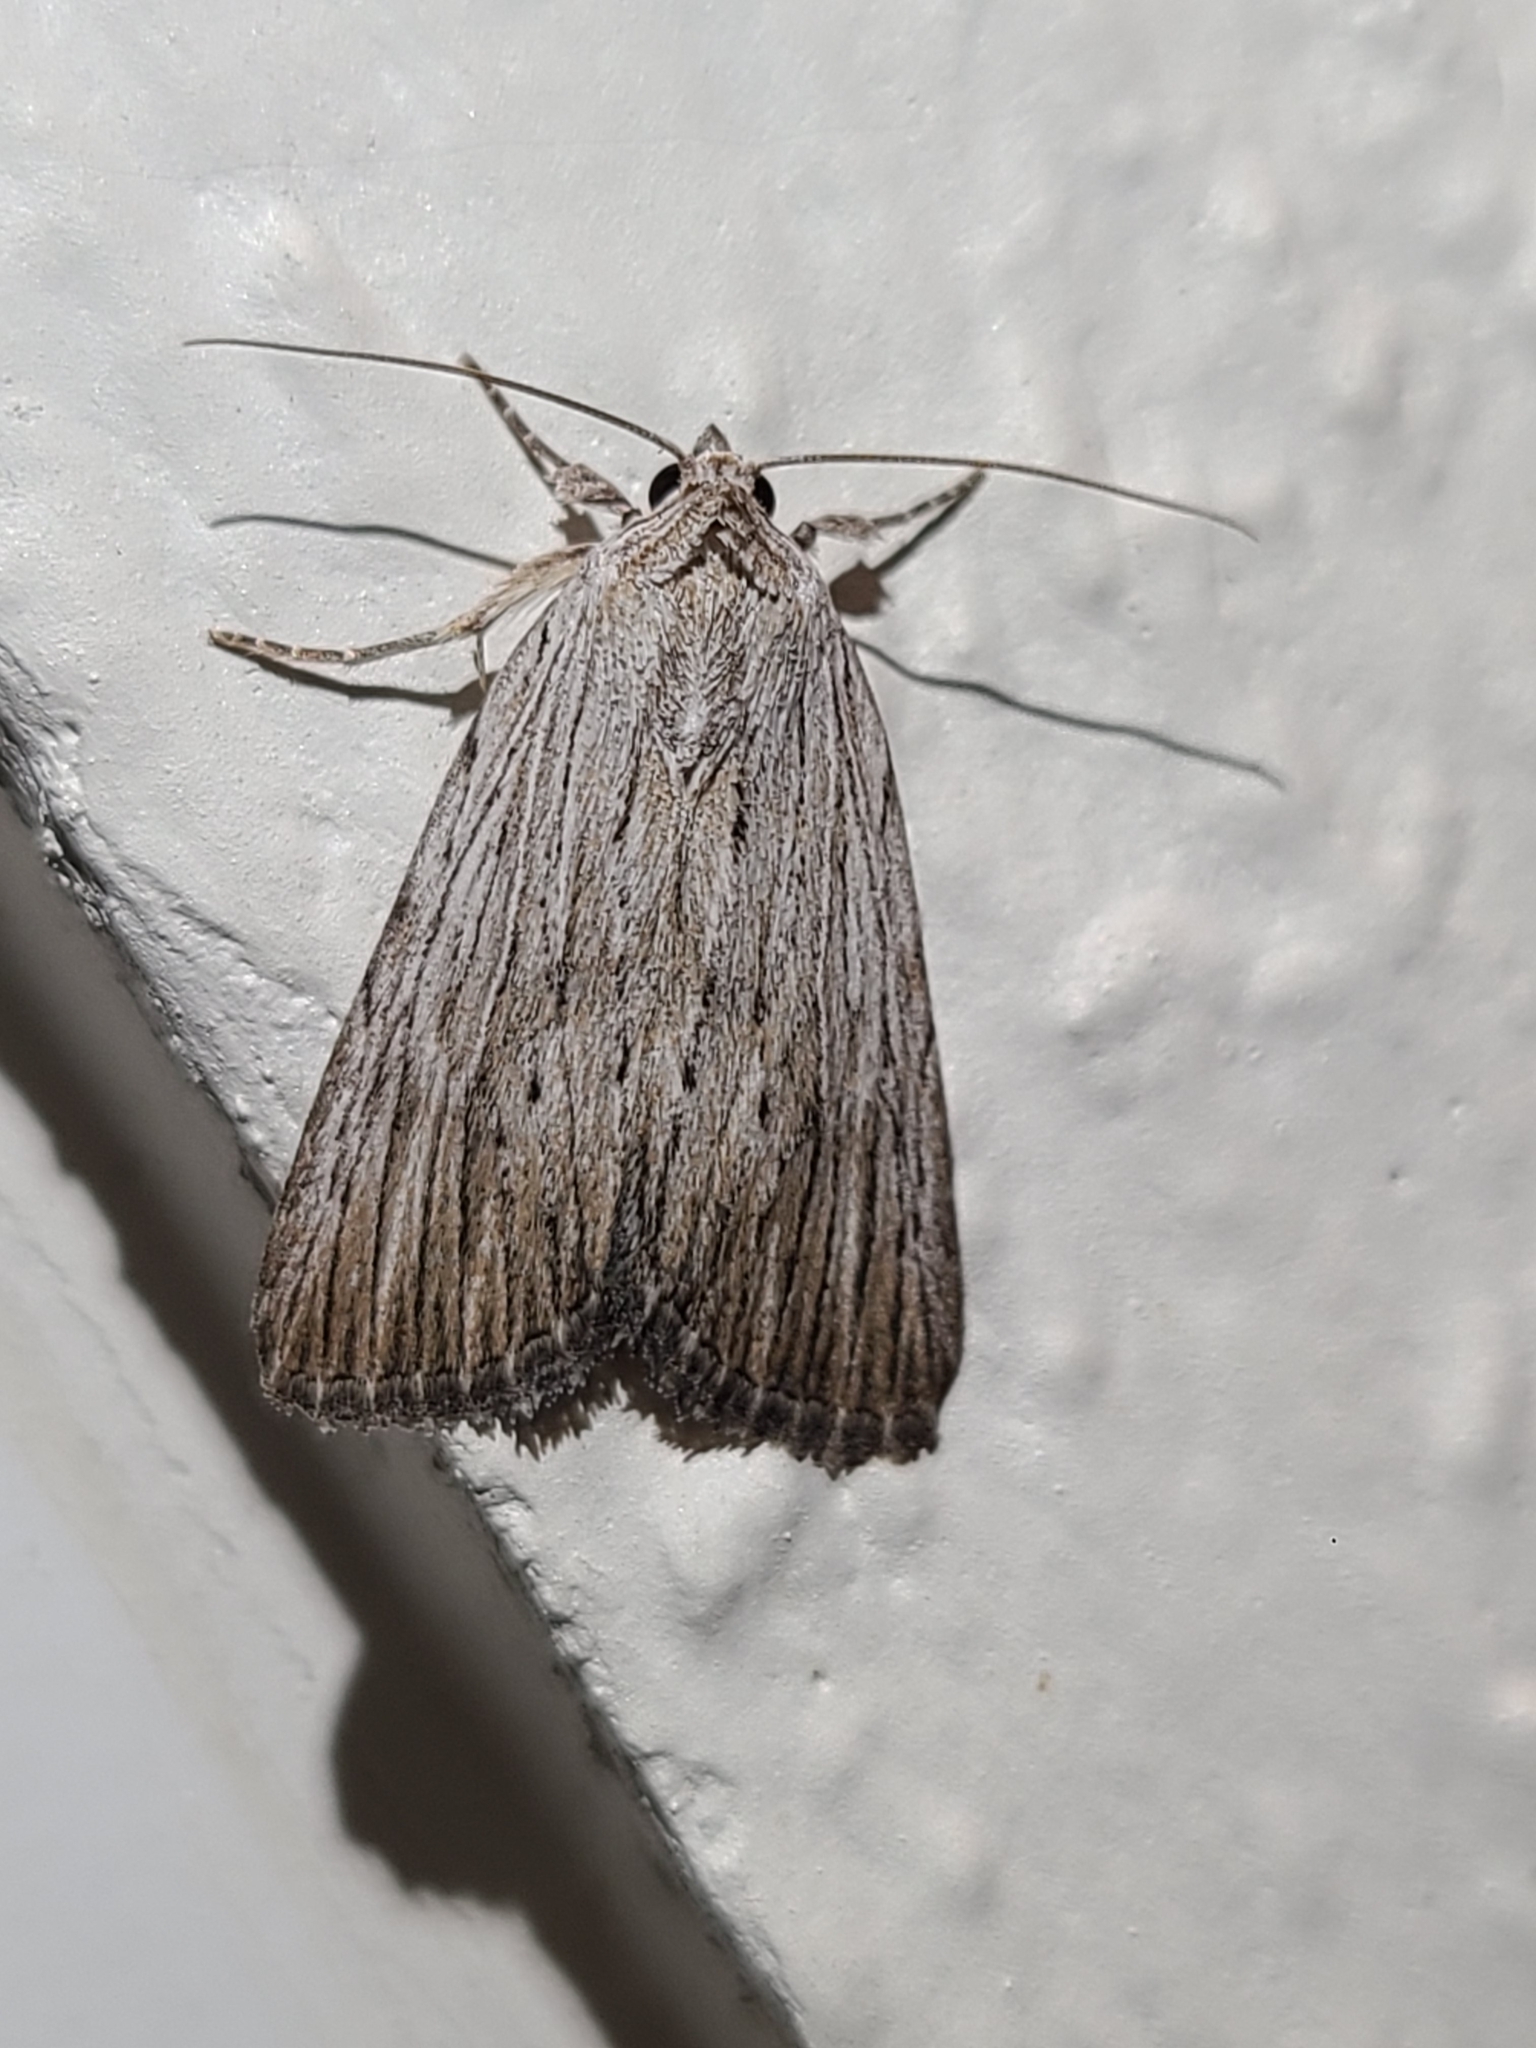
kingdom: Animalia
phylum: Arthropoda
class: Insecta
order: Lepidoptera
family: Noctuidae
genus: Catabena
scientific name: Catabena lineolata
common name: Fine-lined sallow
